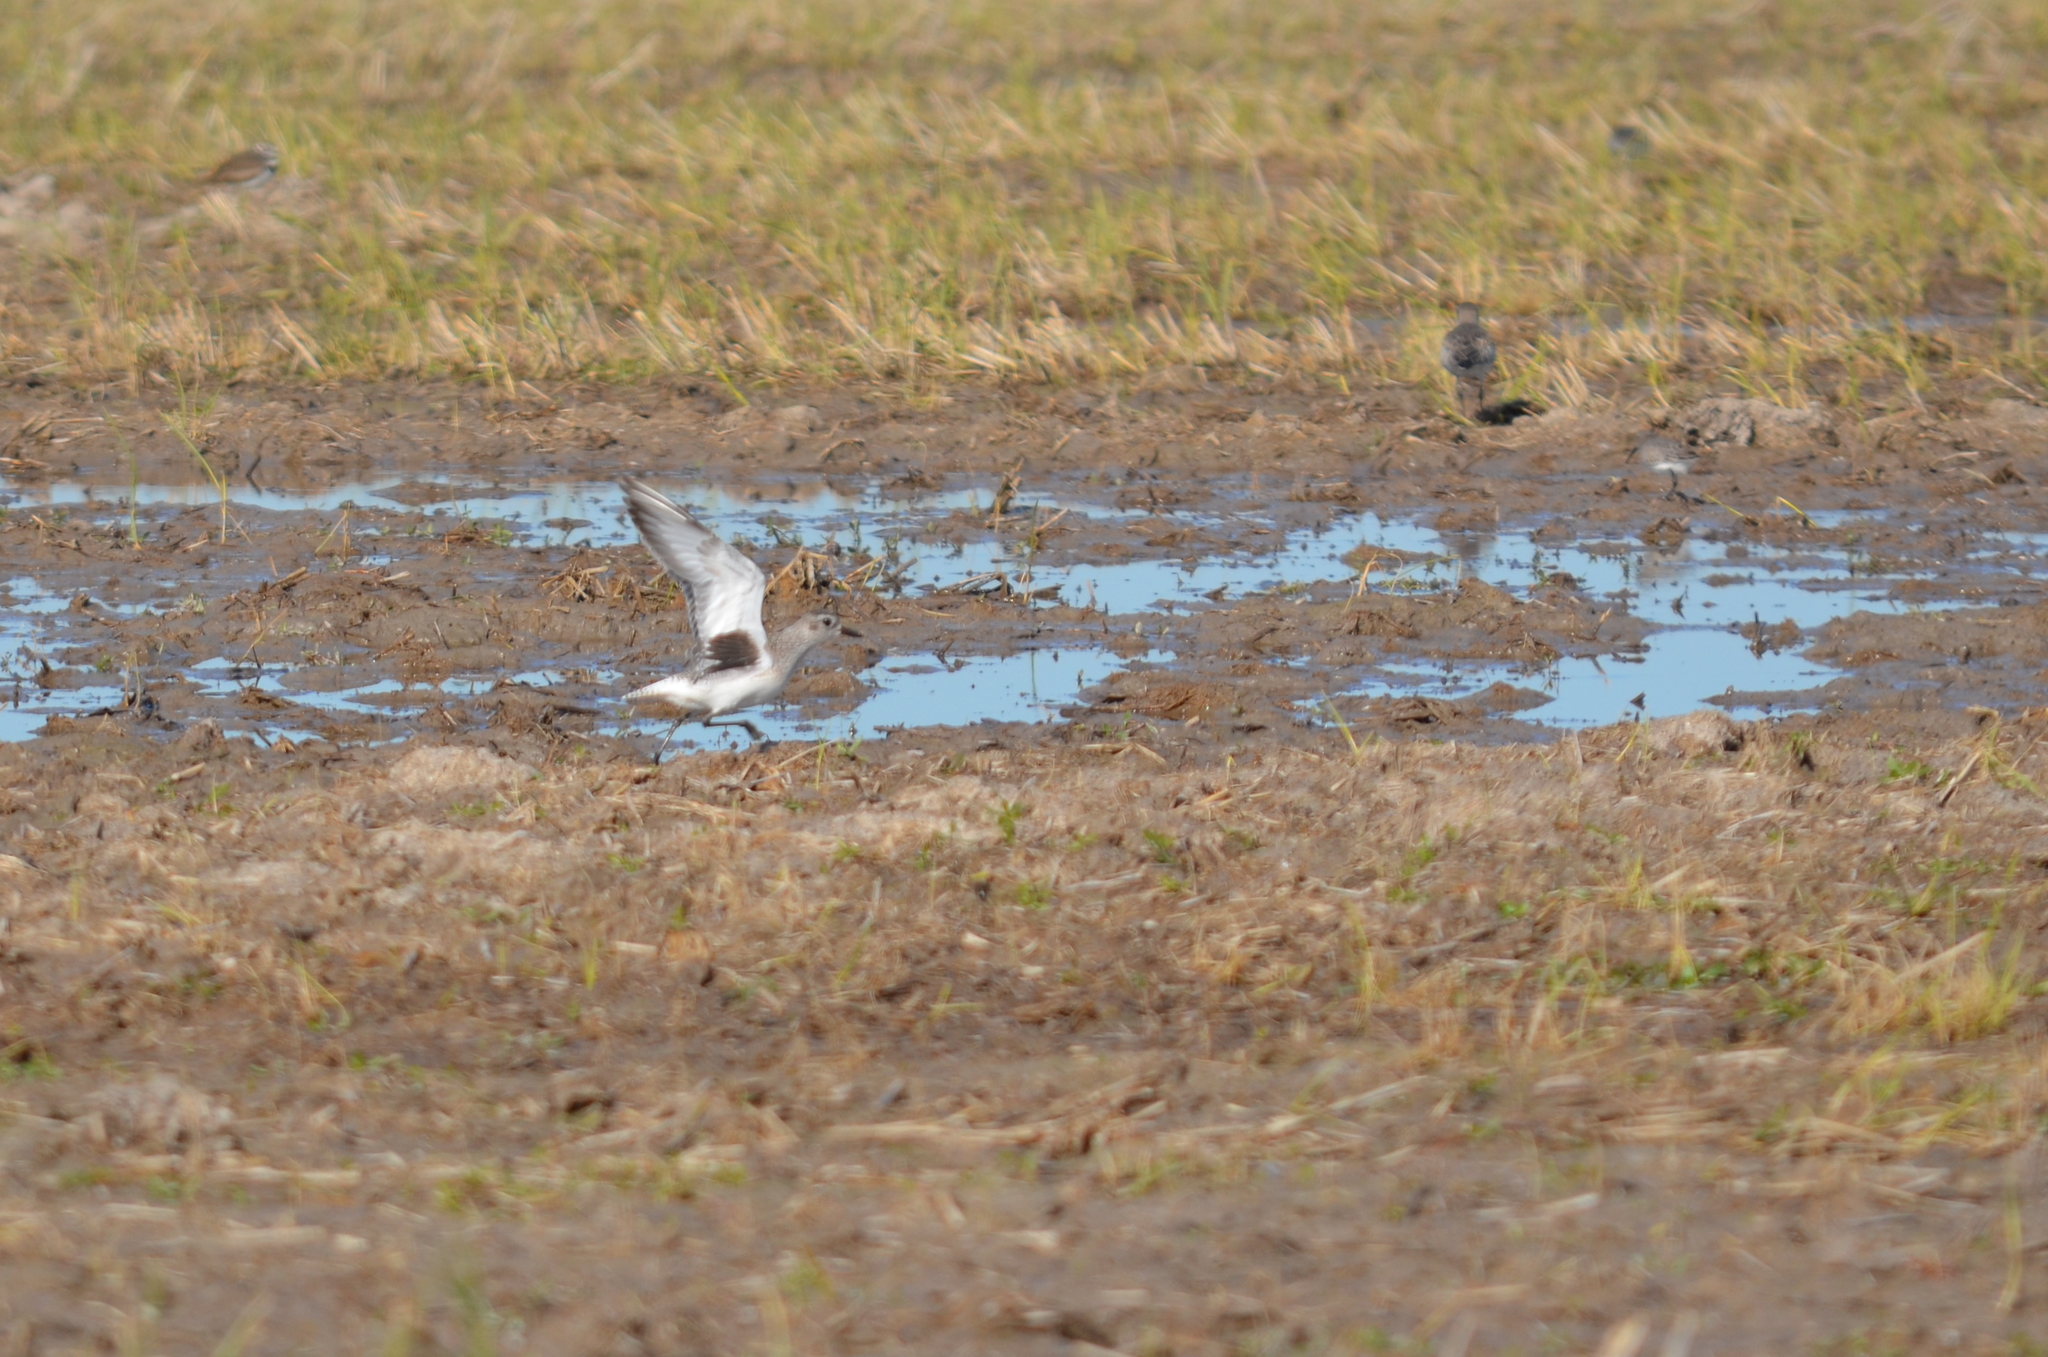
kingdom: Animalia
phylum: Chordata
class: Aves
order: Charadriiformes
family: Charadriidae
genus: Pluvialis
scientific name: Pluvialis squatarola
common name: Grey plover
